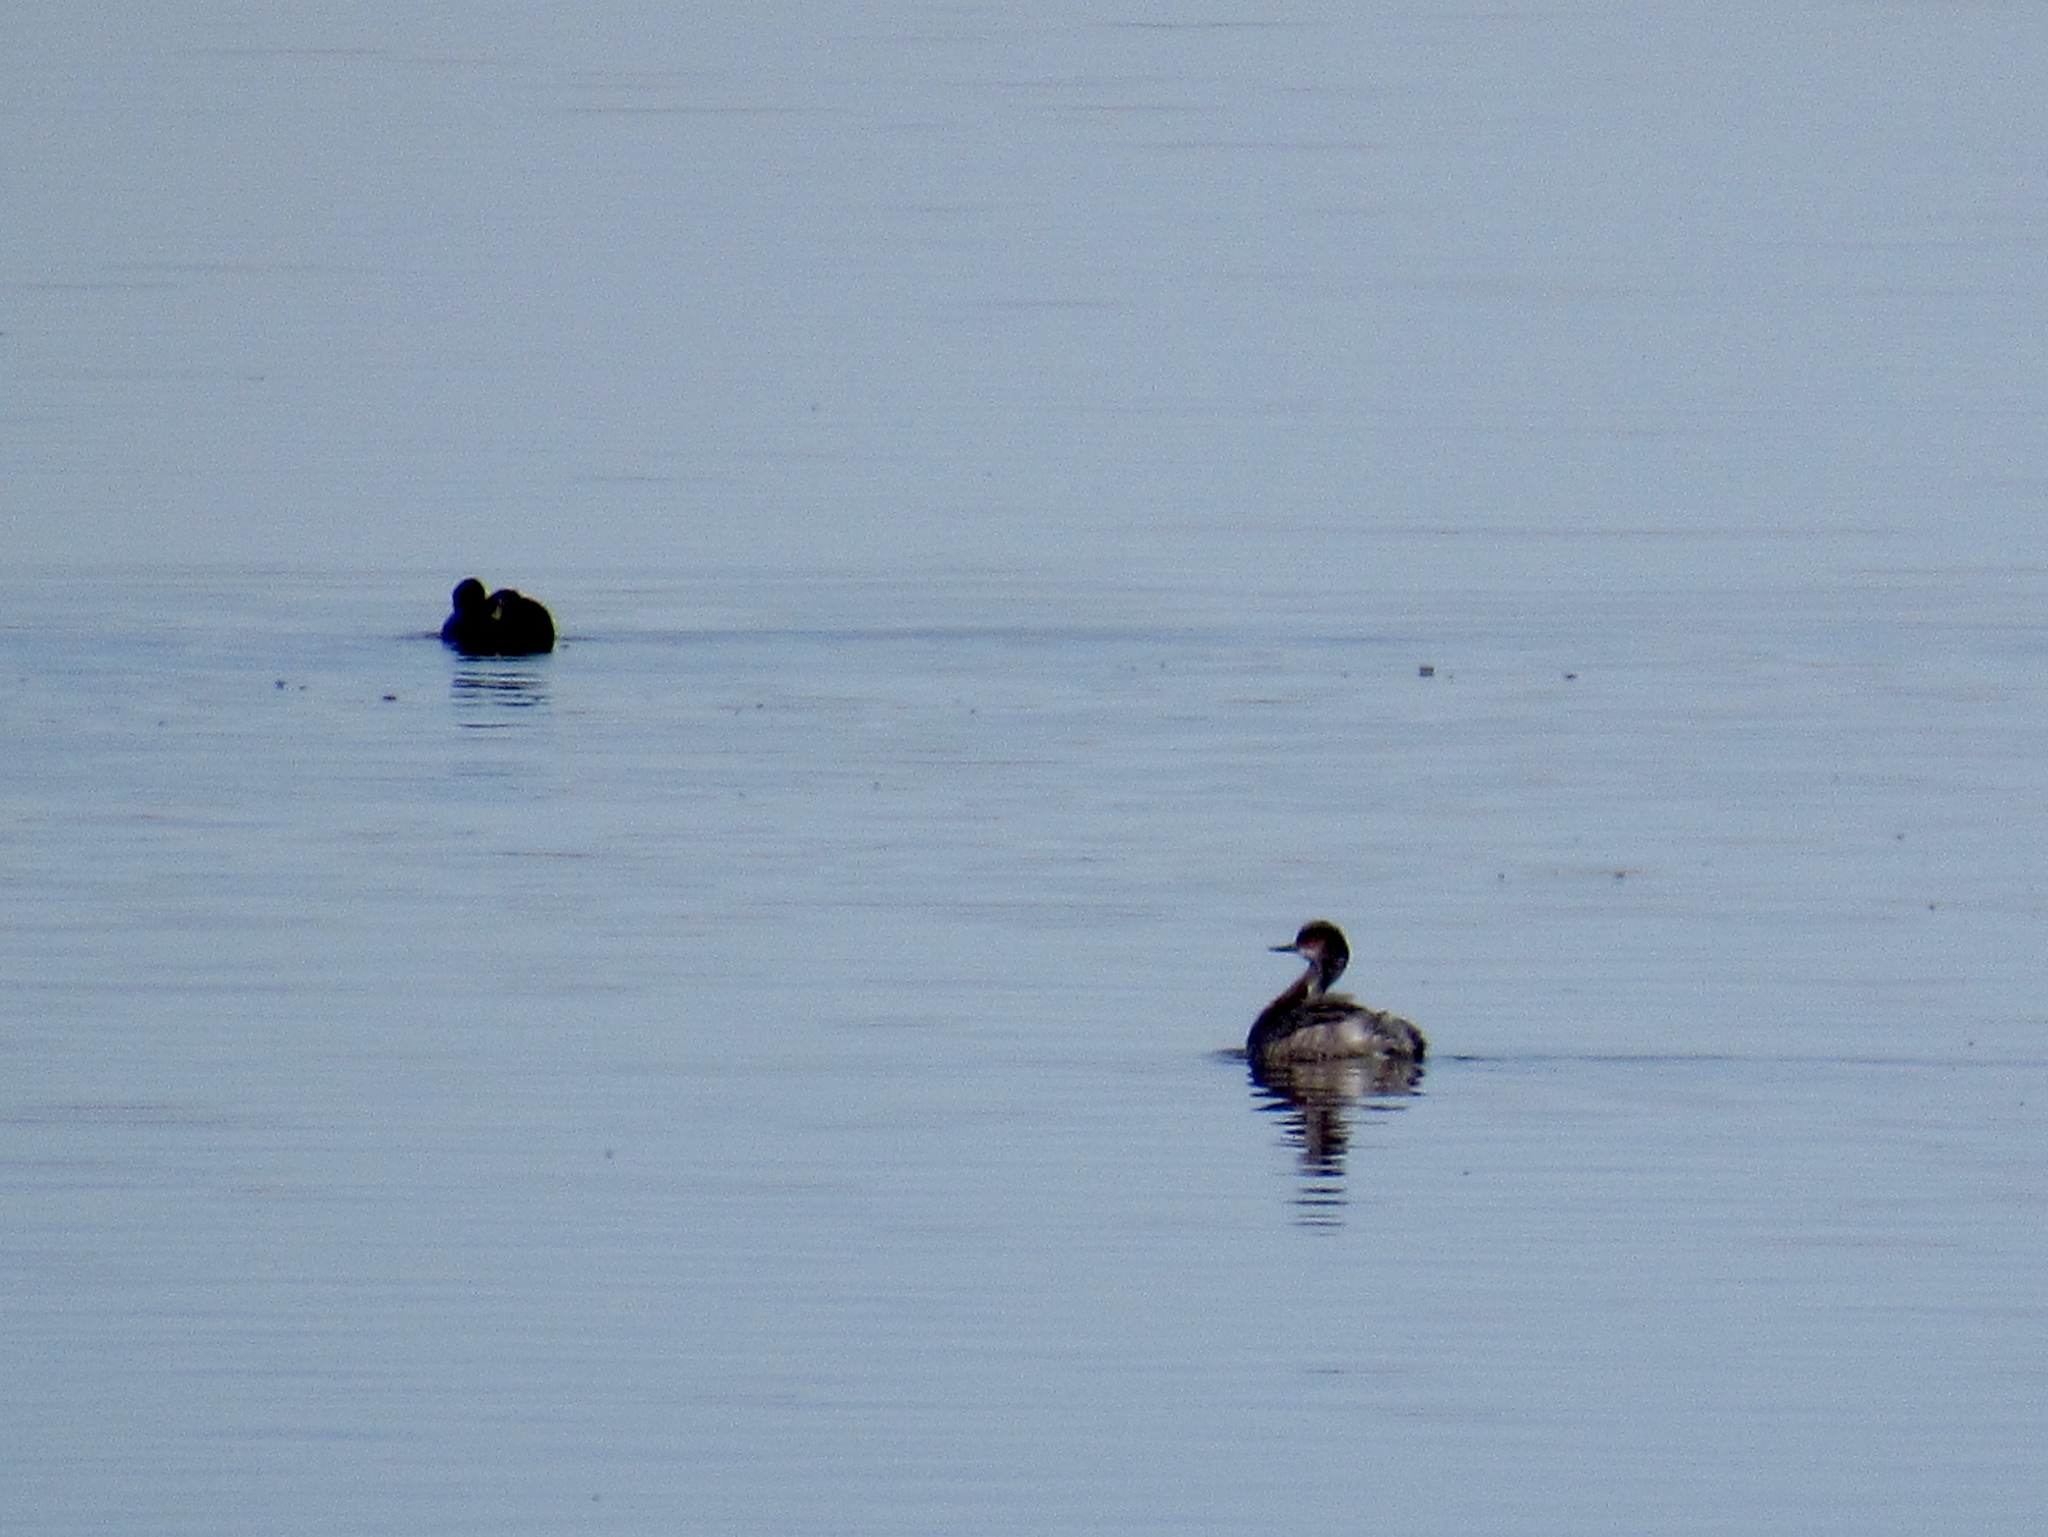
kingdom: Animalia
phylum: Chordata
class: Aves
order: Podicipediformes
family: Podicipedidae
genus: Podiceps
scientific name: Podiceps nigricollis
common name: Black-necked grebe
